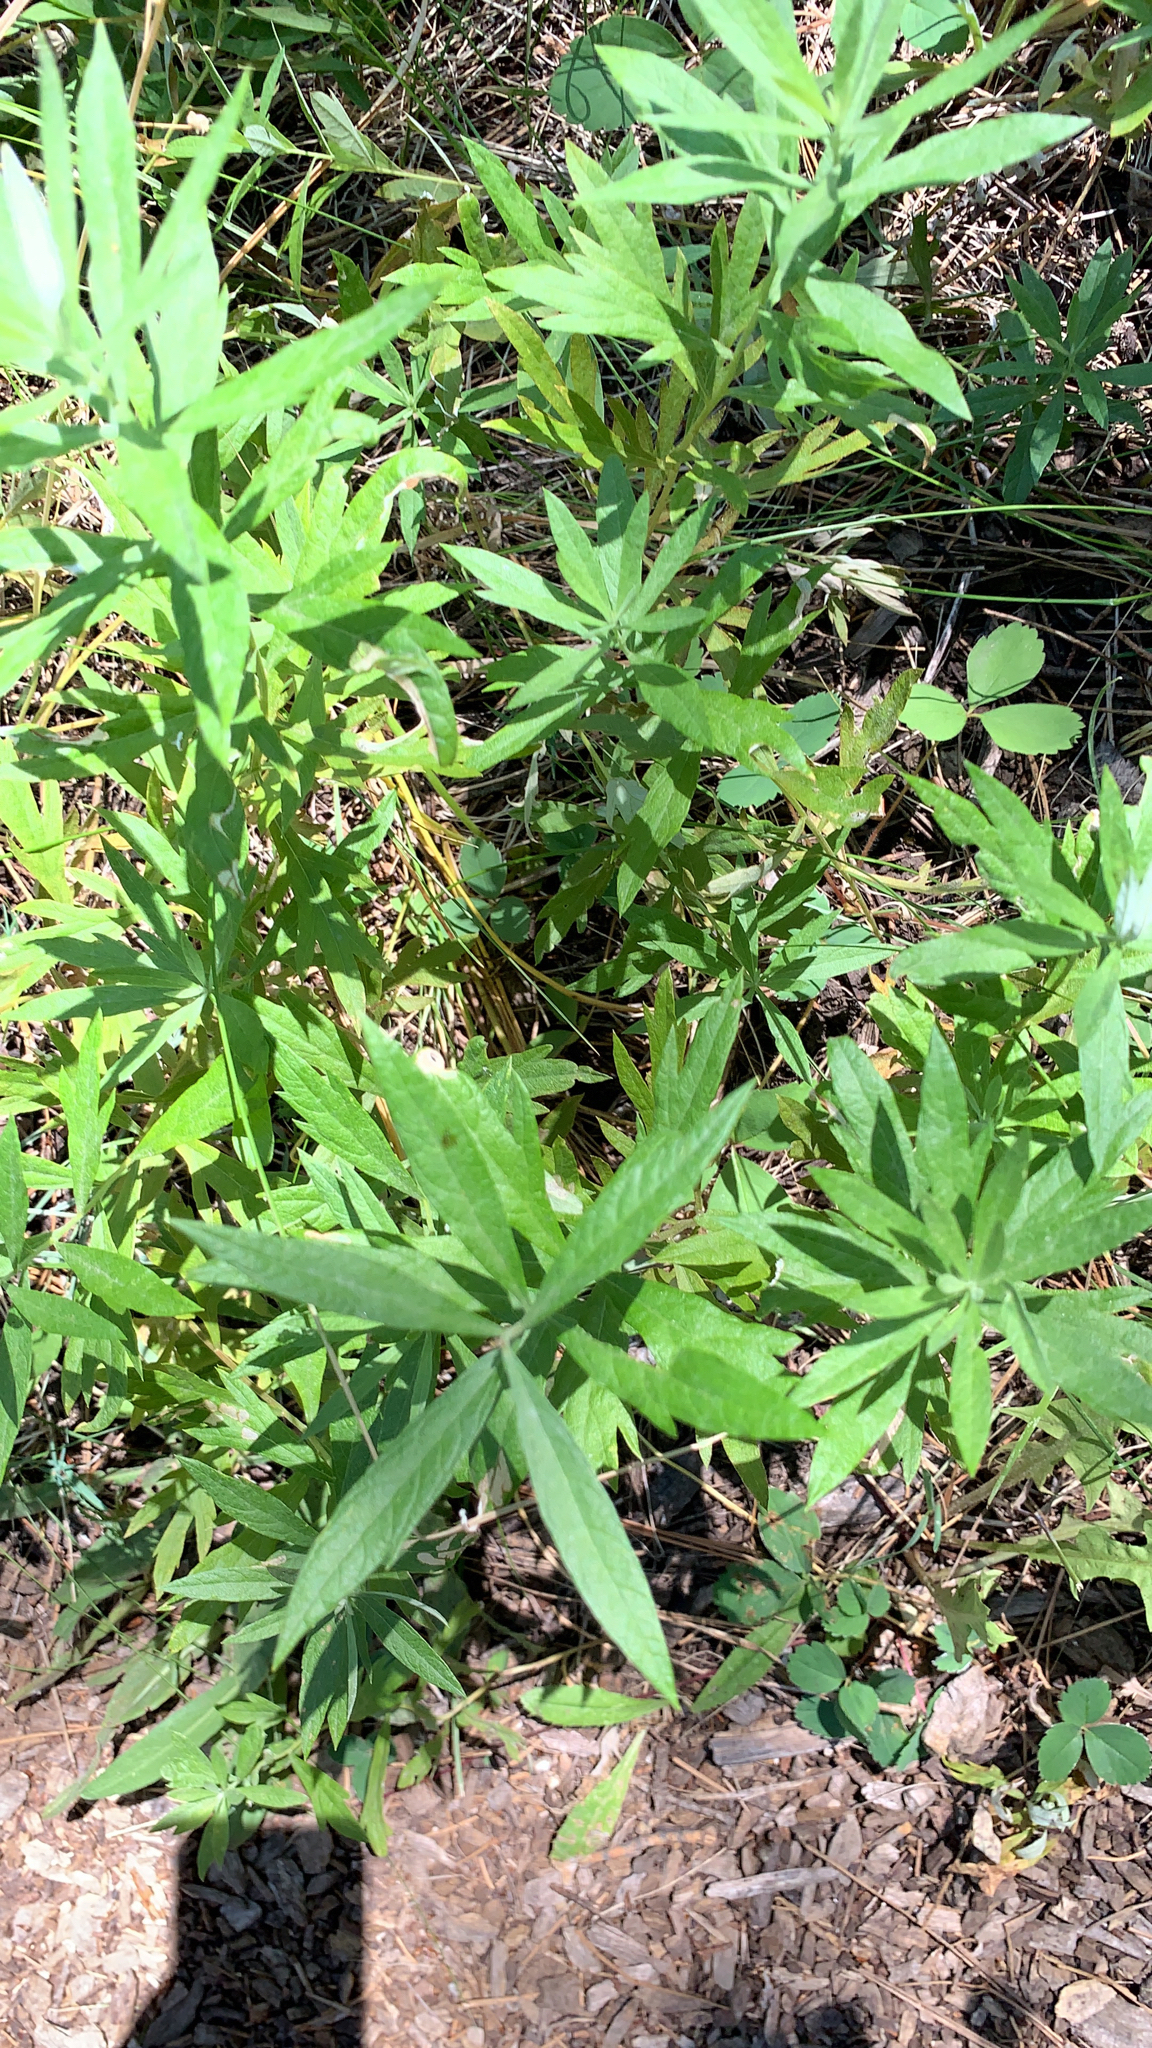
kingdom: Plantae
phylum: Tracheophyta
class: Magnoliopsida
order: Asterales
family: Asteraceae
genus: Artemisia
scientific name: Artemisia douglasiana
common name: Northwest mugwort
